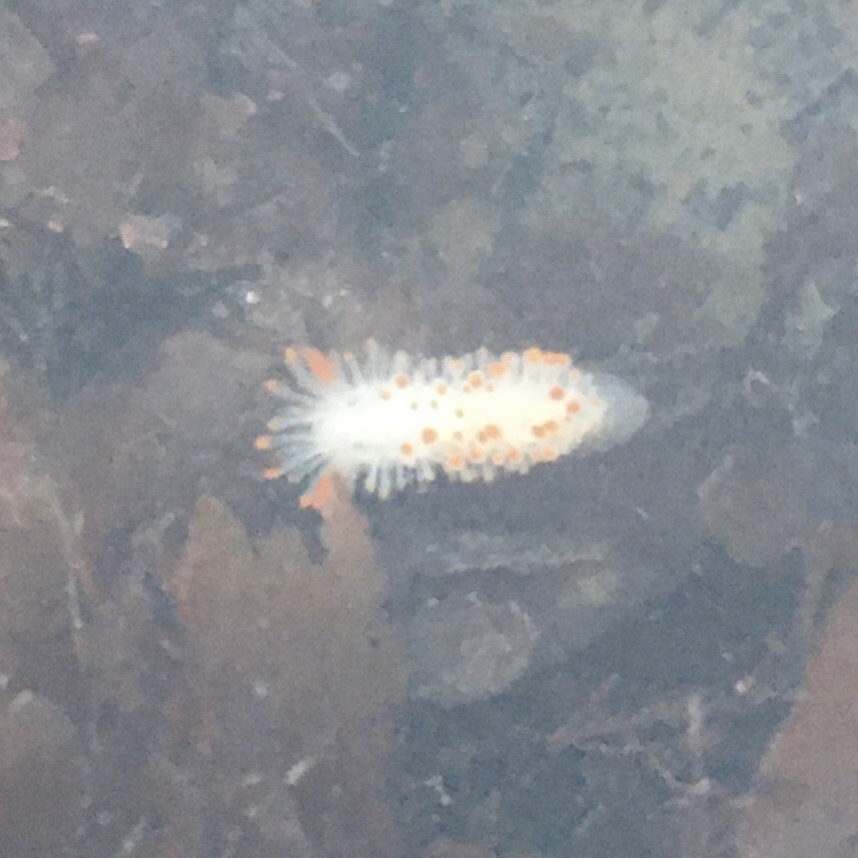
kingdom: Animalia
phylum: Mollusca
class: Gastropoda
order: Nudibranchia
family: Polyceridae
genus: Limacia
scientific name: Limacia cockerelli
